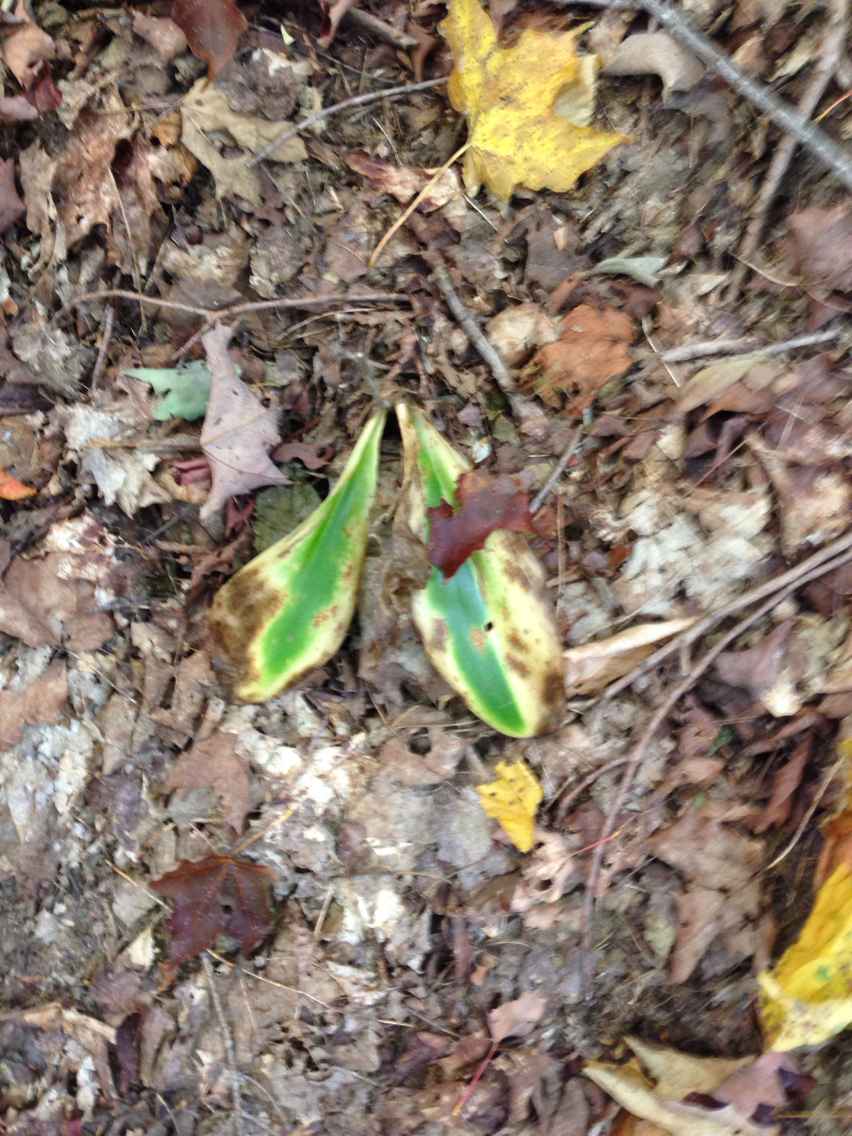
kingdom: Plantae
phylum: Tracheophyta
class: Liliopsida
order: Liliales
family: Liliaceae
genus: Clintonia
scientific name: Clintonia borealis
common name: Yellow clintonia
